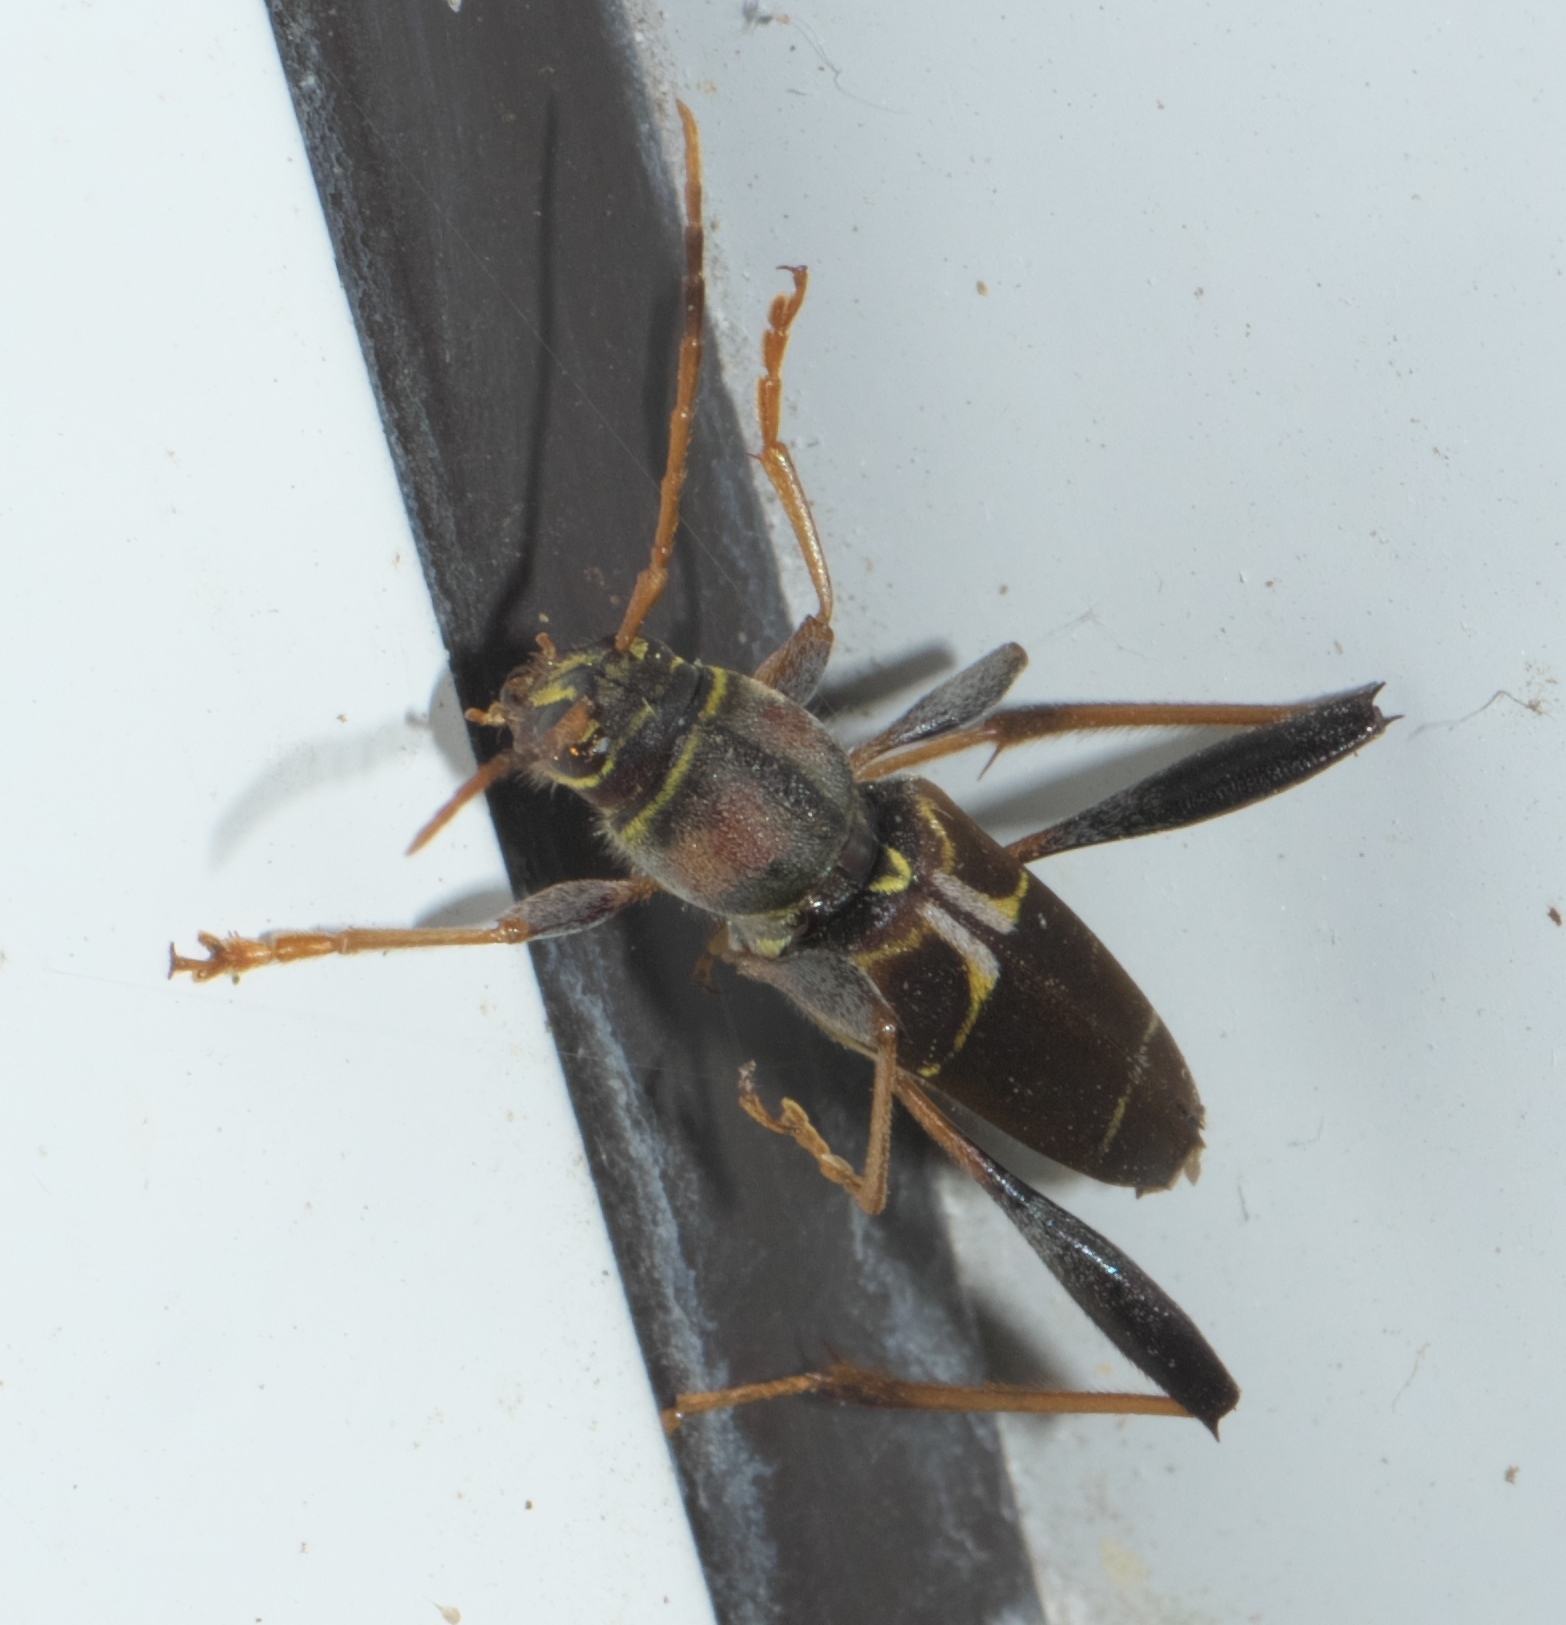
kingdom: Animalia
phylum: Arthropoda
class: Insecta
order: Coleoptera
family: Cerambycidae
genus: Neoclytus
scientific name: Neoclytus mucronatus
